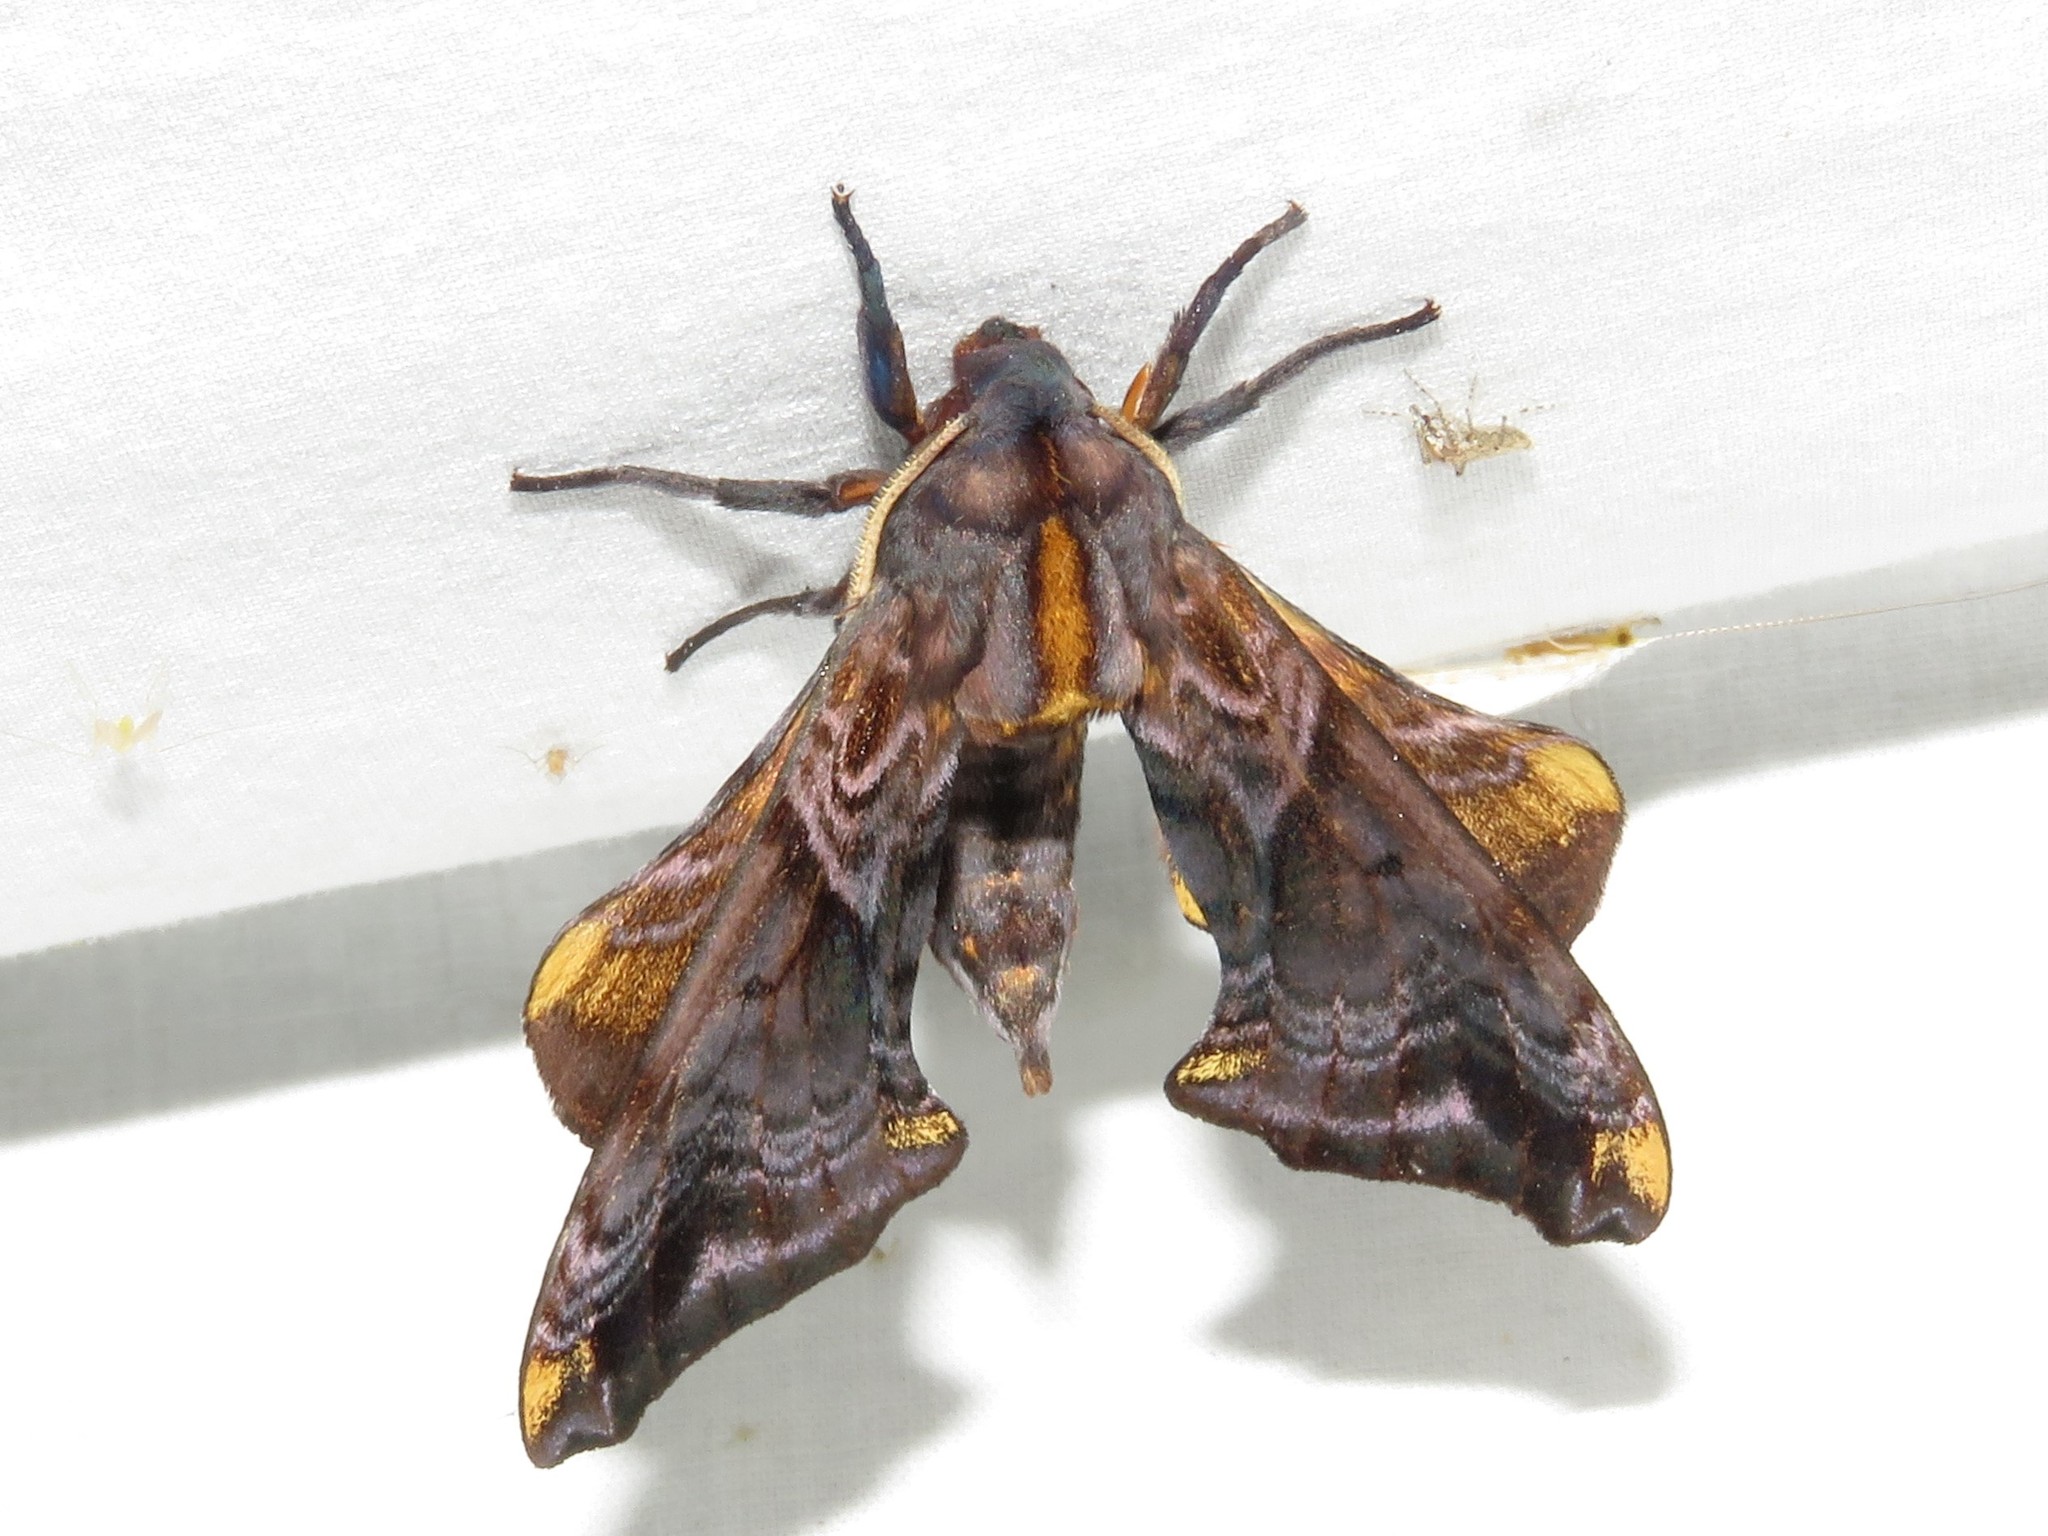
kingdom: Animalia
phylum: Arthropoda
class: Insecta
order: Lepidoptera
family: Sphingidae
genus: Paonias
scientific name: Paonias myops
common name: Small-eyed sphinx
